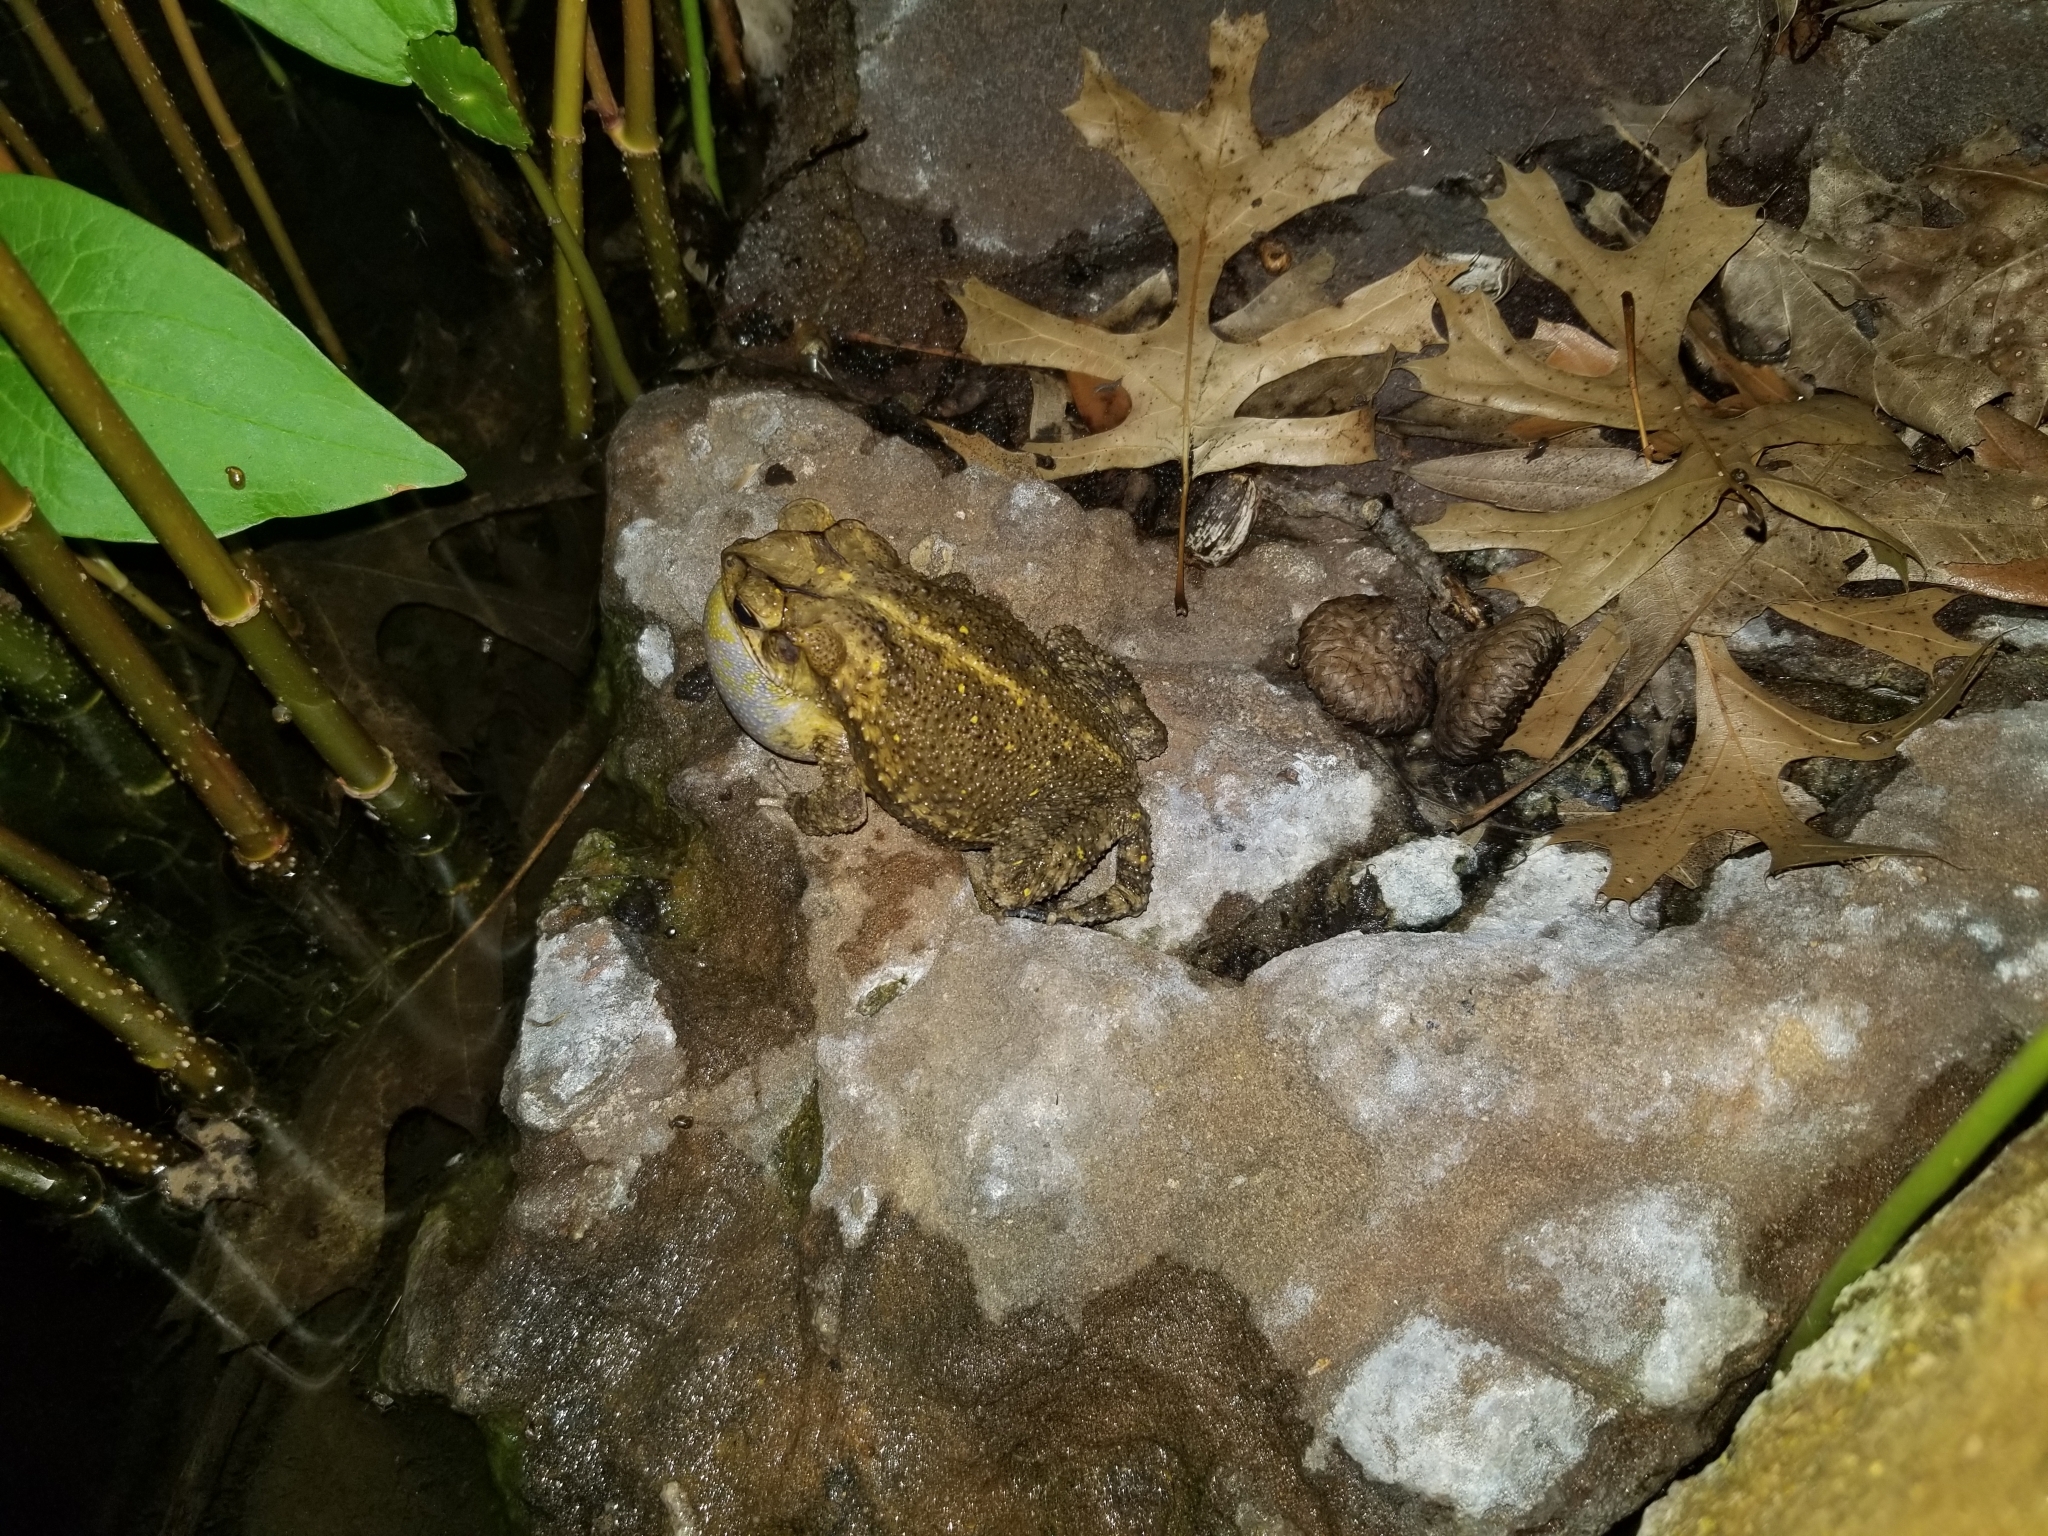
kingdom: Animalia
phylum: Chordata
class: Amphibia
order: Anura
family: Bufonidae
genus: Incilius
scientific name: Incilius nebulifer
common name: Gulf coast toad
